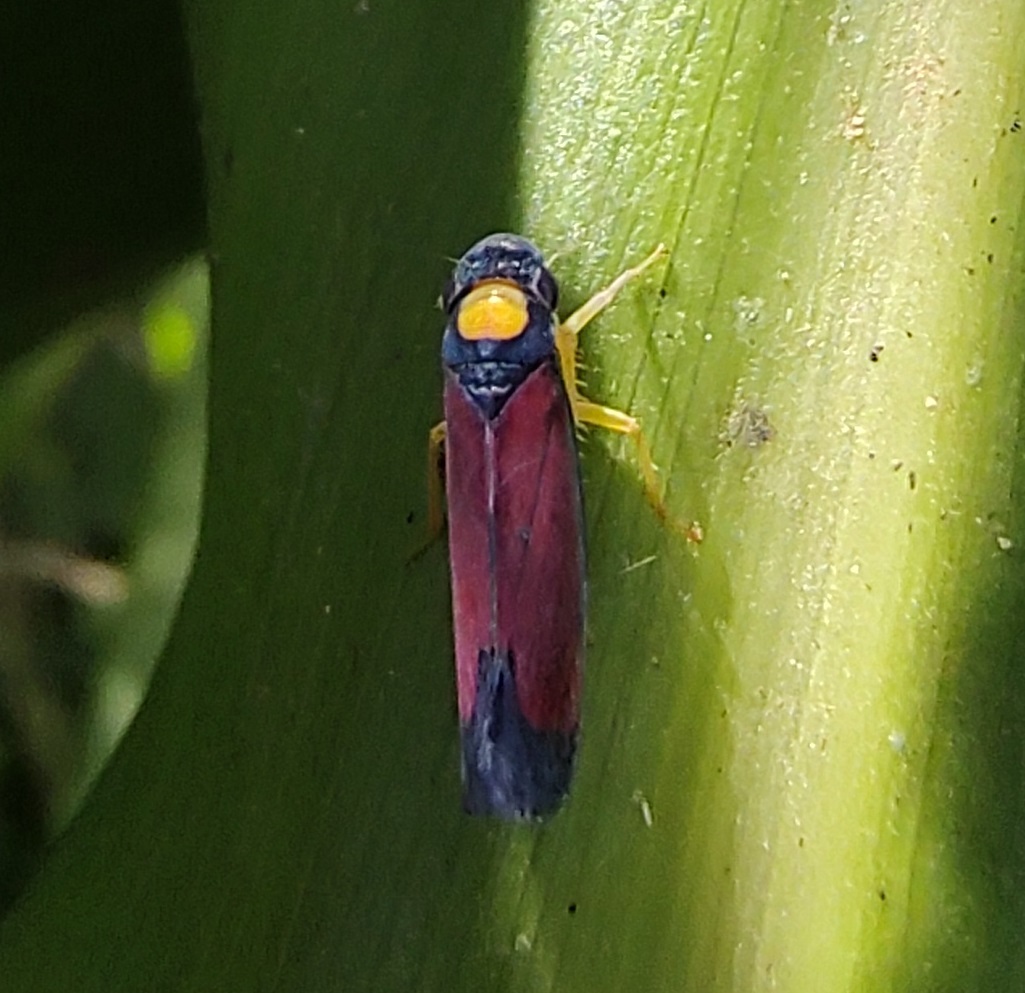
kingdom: Animalia
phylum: Arthropoda
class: Insecta
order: Hemiptera
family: Cicadellidae
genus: Erythrogonia
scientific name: Erythrogonia victori
